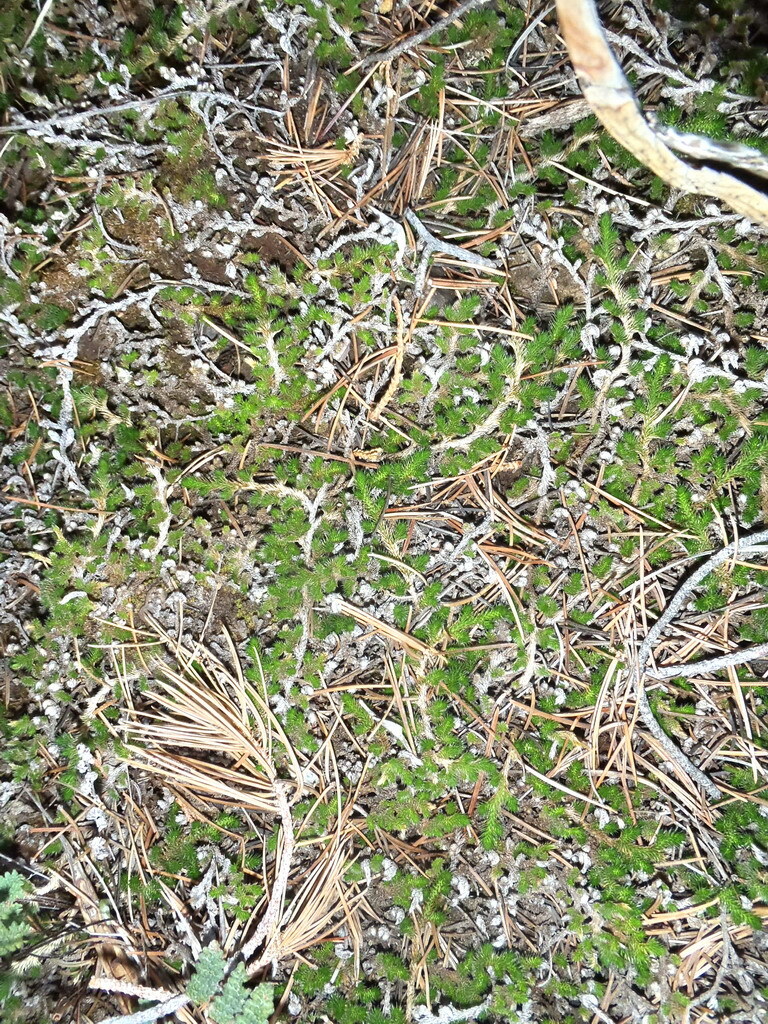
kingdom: Plantae
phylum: Tracheophyta
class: Lycopodiopsida
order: Selaginellales
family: Selaginellaceae
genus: Selaginella
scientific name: Selaginella densa
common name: Mountain spike-moss
